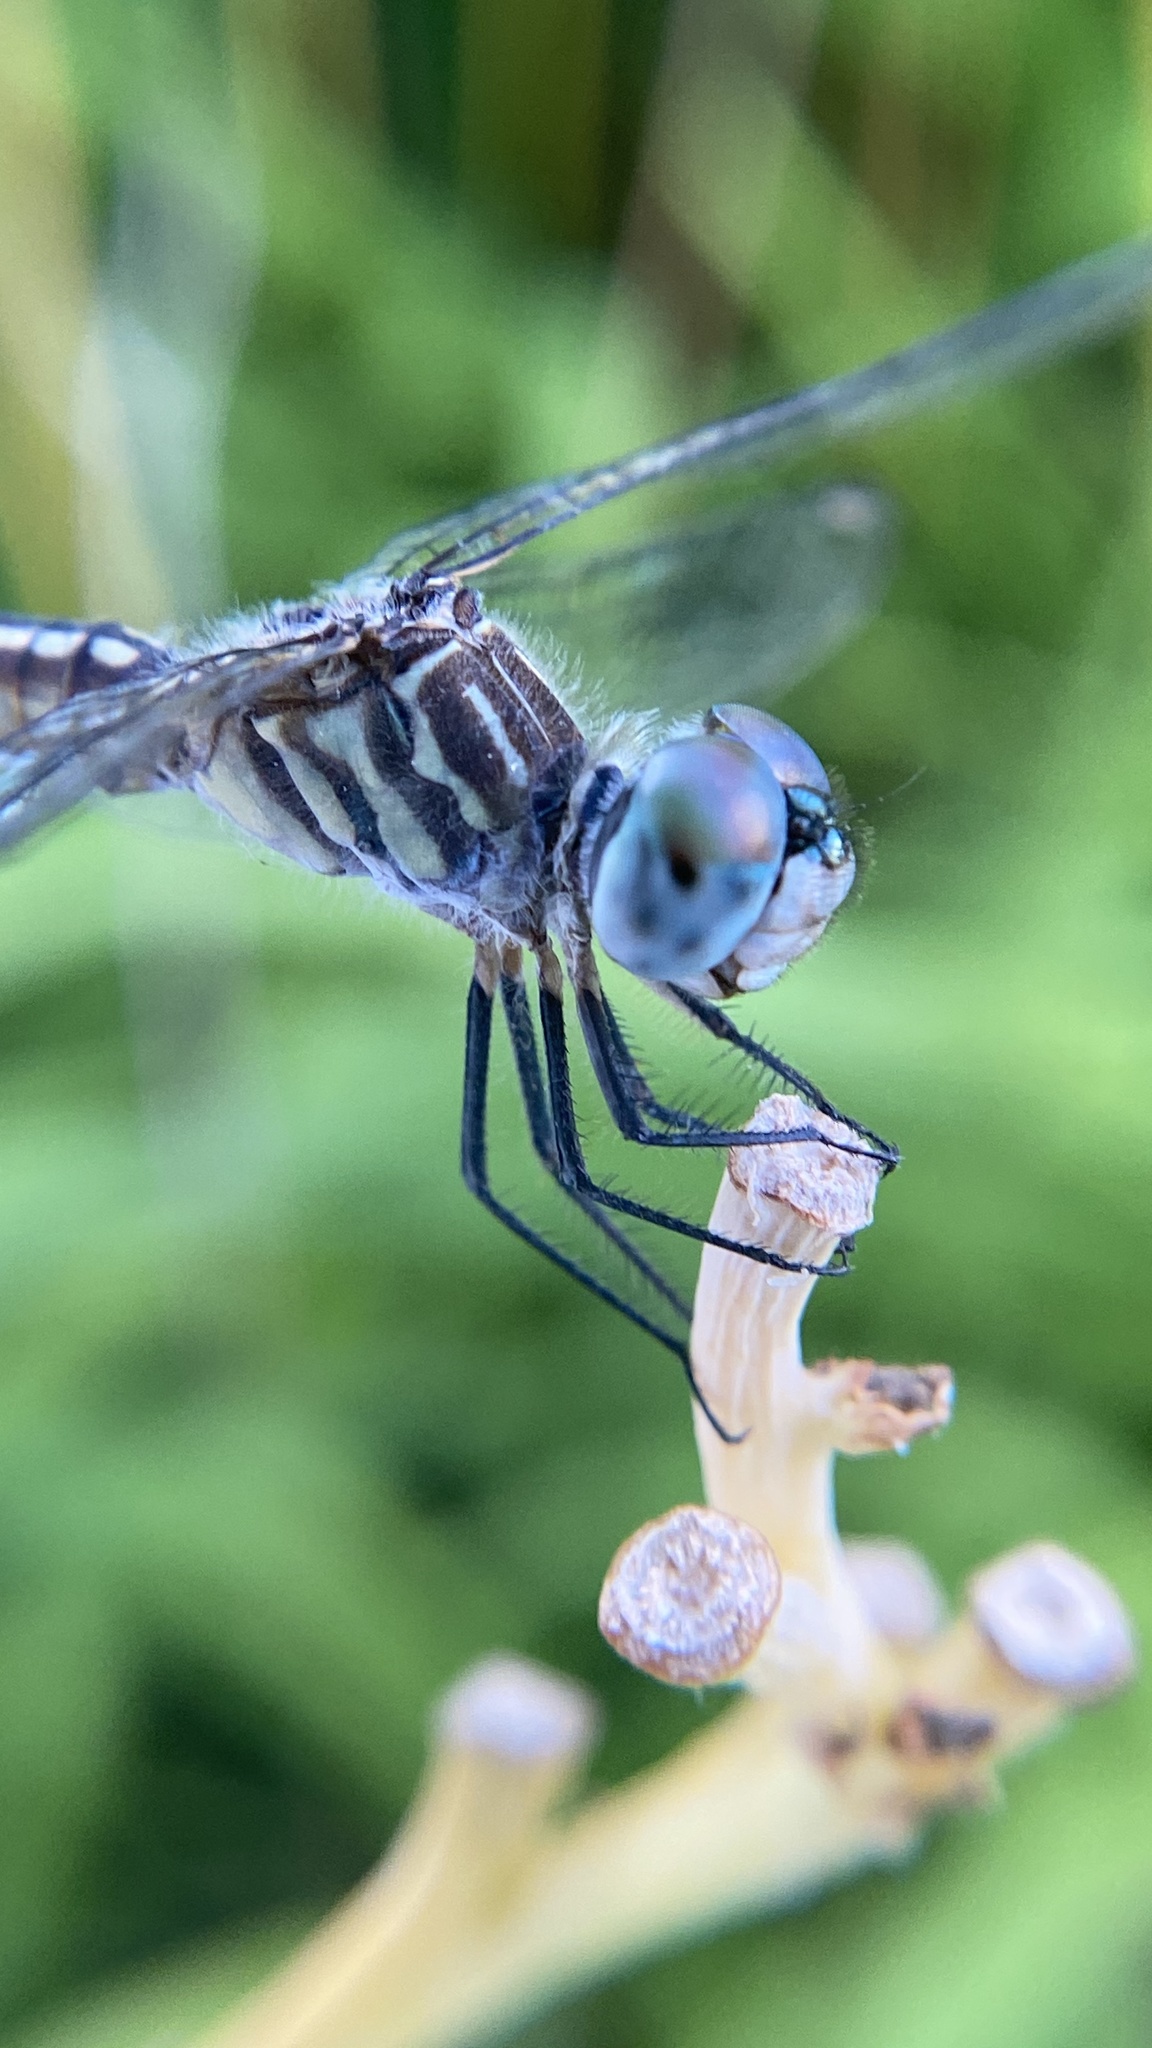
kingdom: Animalia
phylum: Arthropoda
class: Insecta
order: Odonata
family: Libellulidae
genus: Pachydiplax
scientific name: Pachydiplax longipennis
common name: Blue dasher
